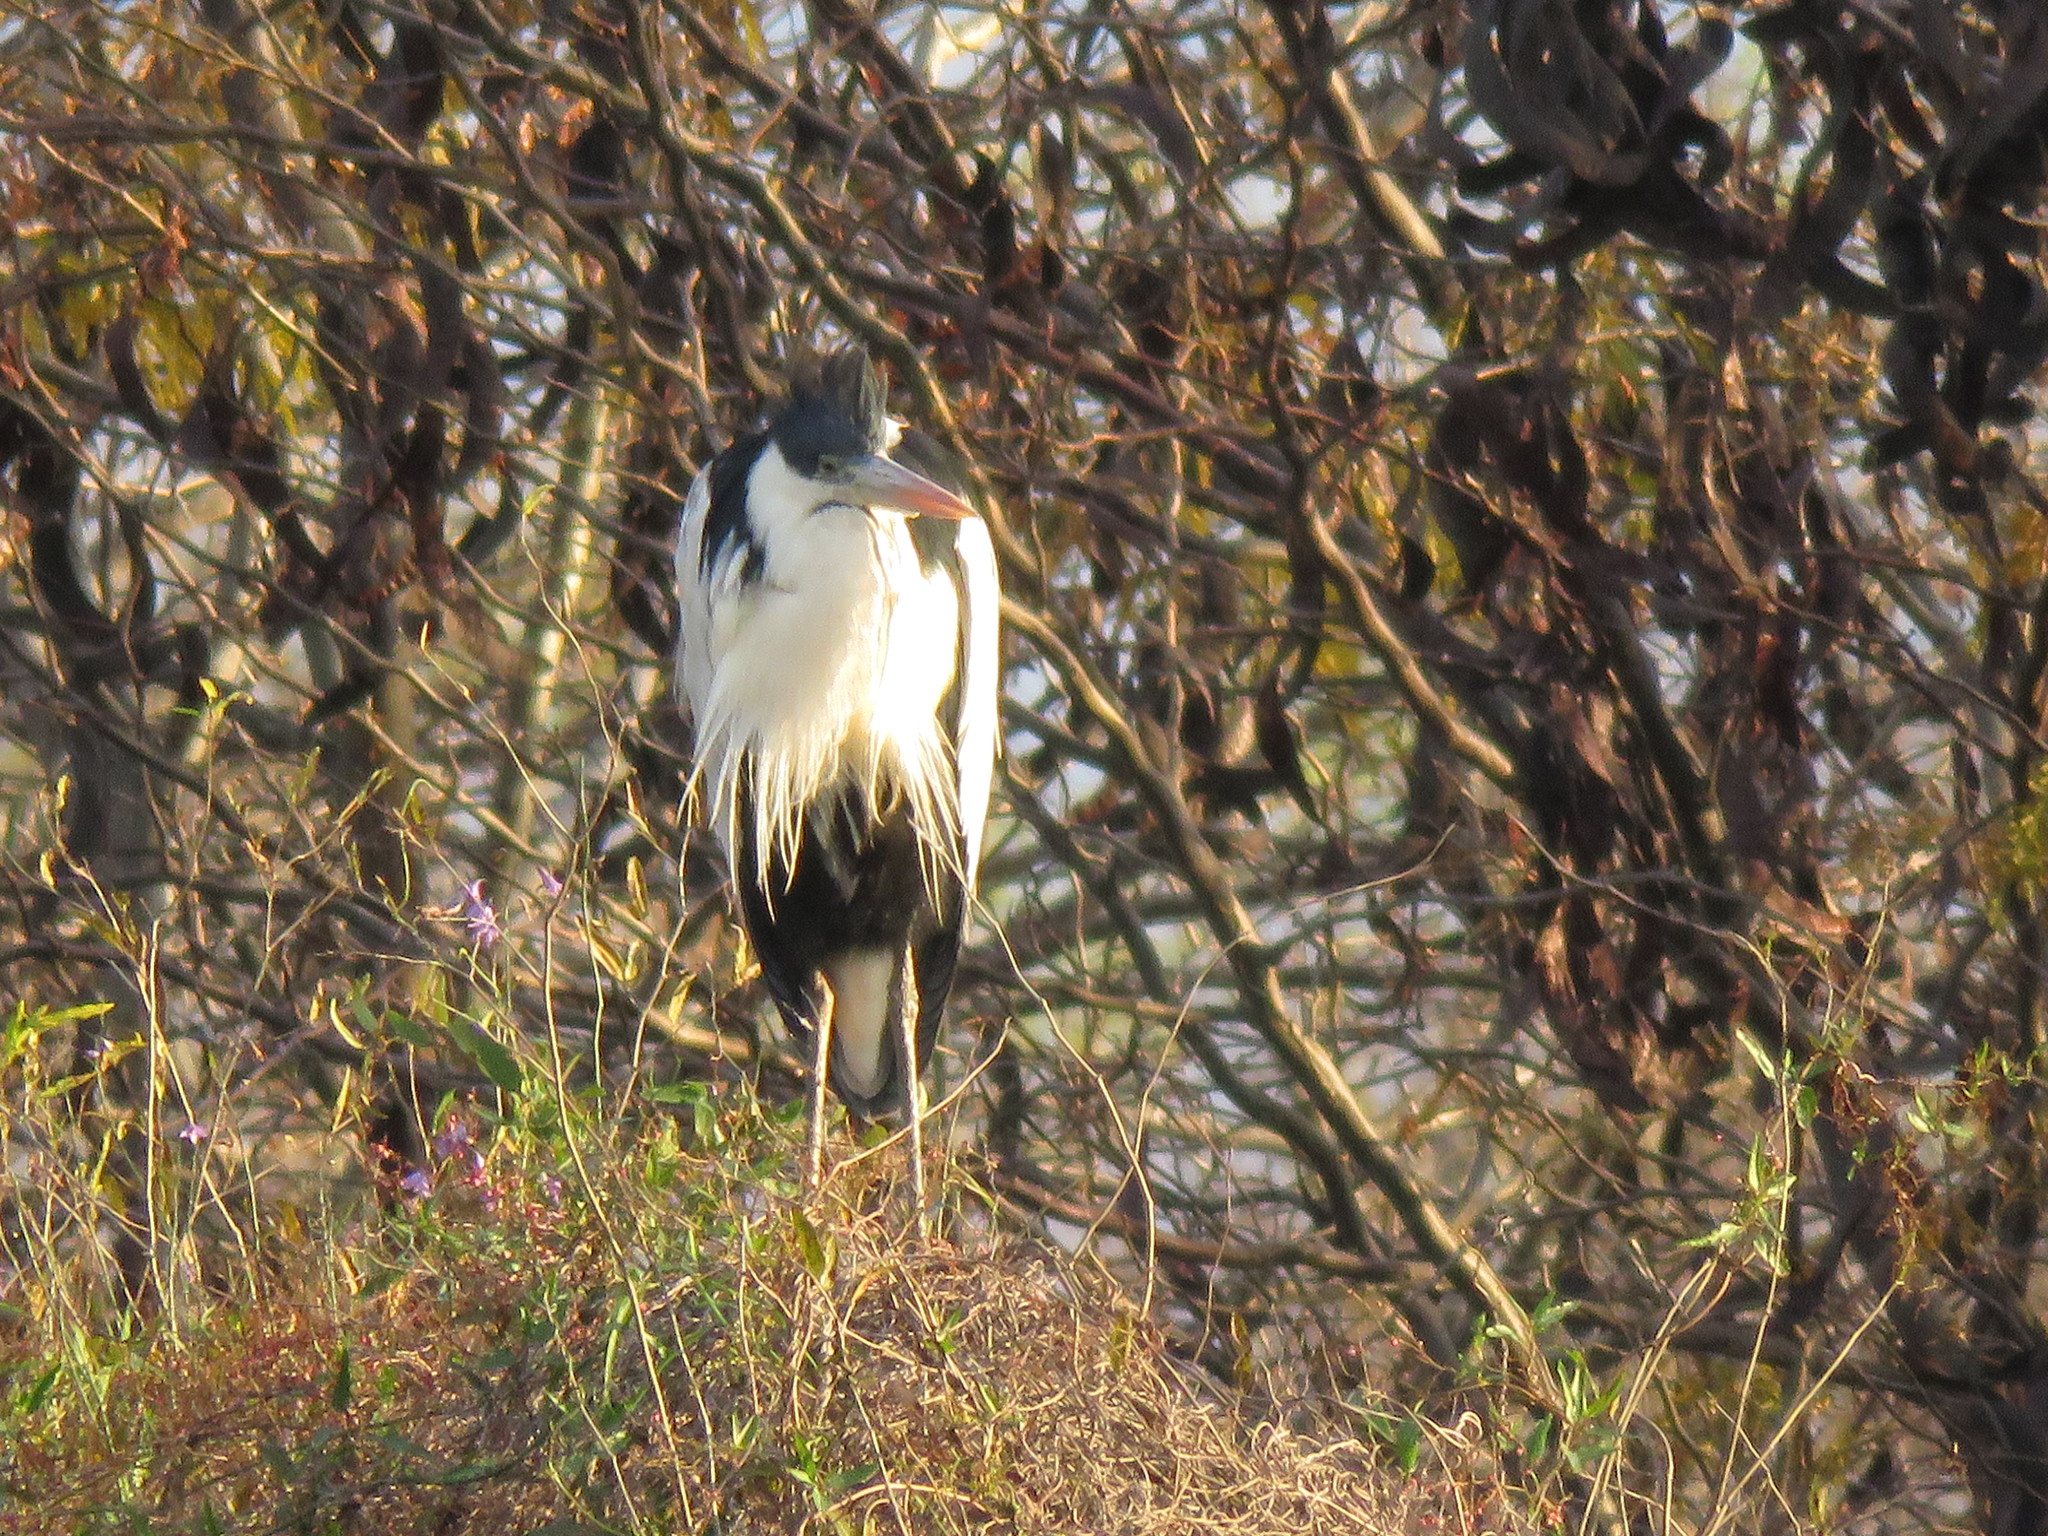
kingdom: Animalia
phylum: Chordata
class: Aves
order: Pelecaniformes
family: Ardeidae
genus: Ardea
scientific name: Ardea cocoi
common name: Cocoi heron
